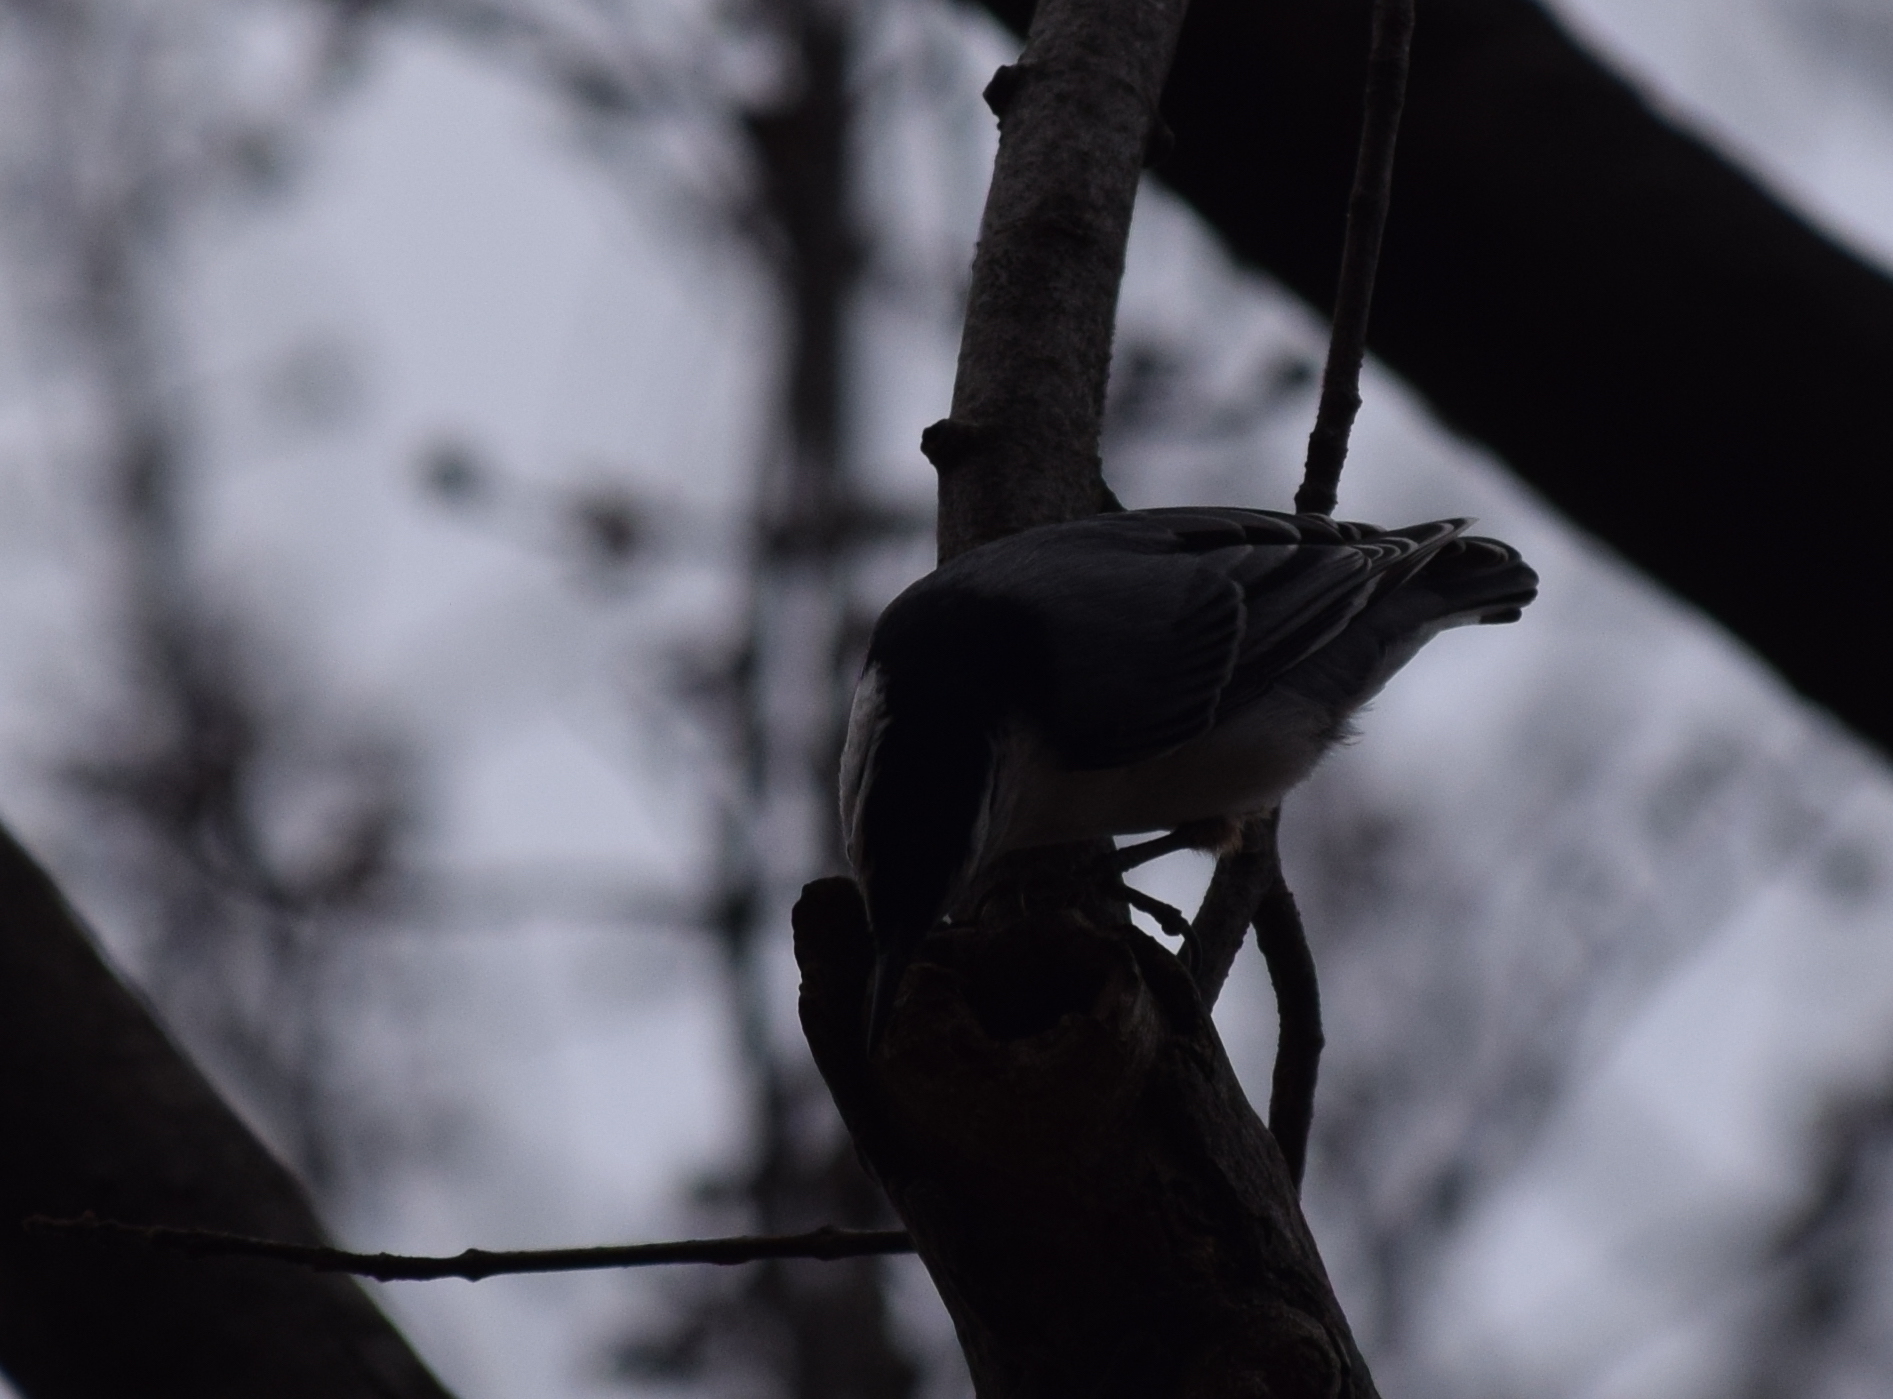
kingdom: Animalia
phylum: Chordata
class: Aves
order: Passeriformes
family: Sittidae
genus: Sitta
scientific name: Sitta carolinensis
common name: White-breasted nuthatch
